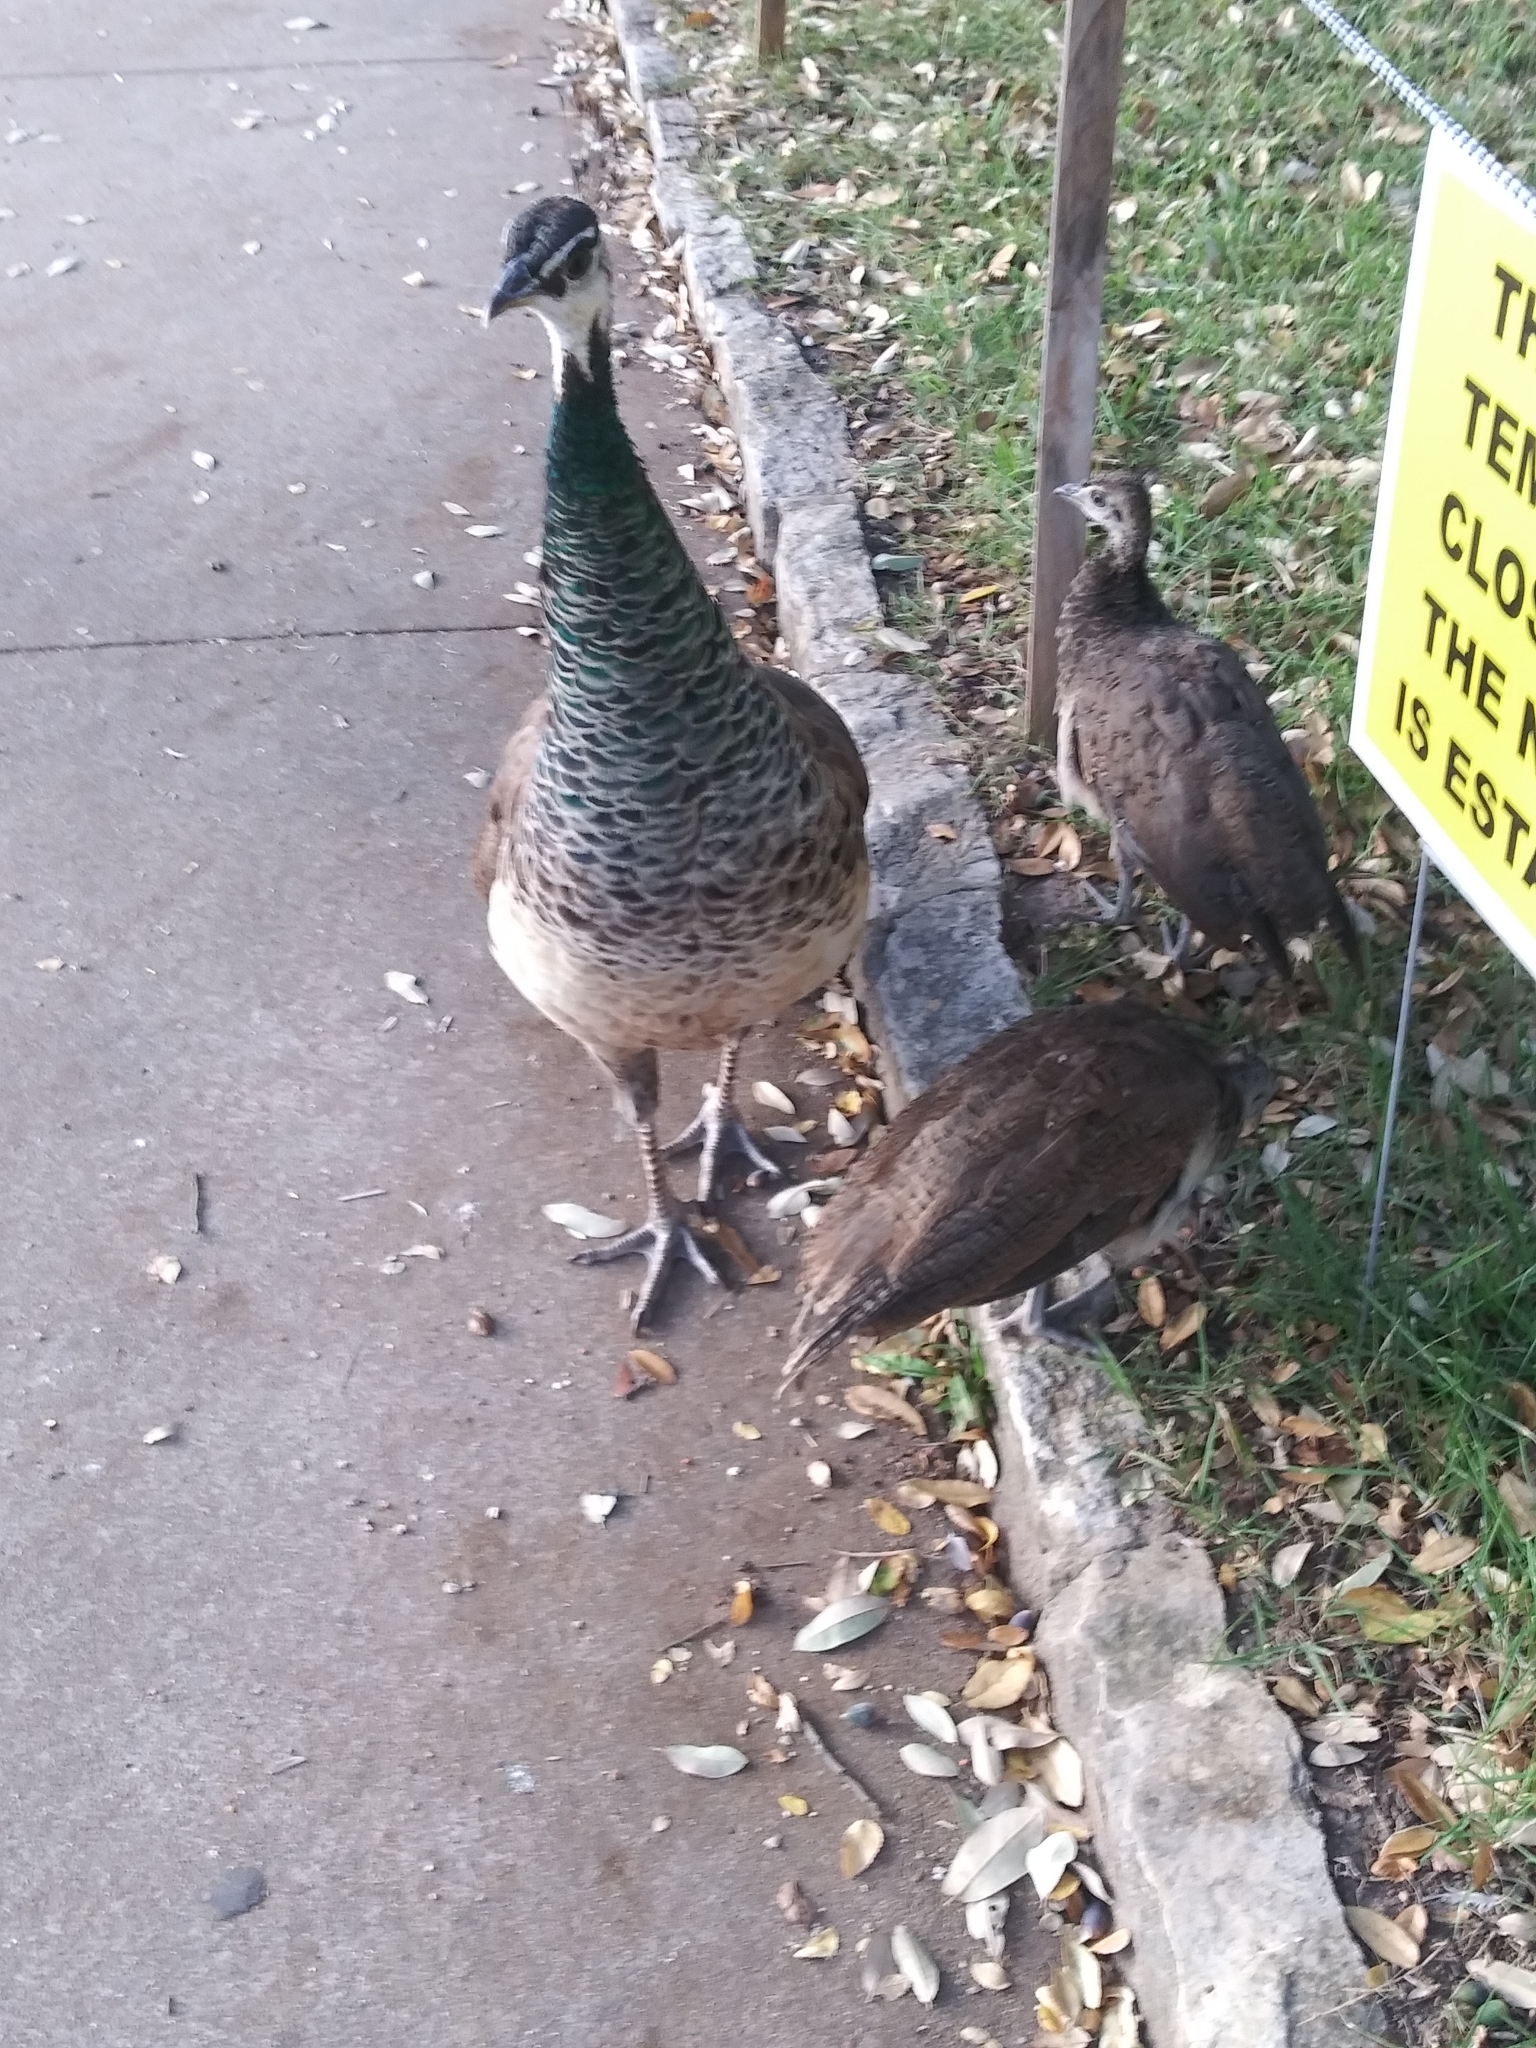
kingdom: Animalia
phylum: Chordata
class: Aves
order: Galliformes
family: Phasianidae
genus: Pavo
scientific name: Pavo cristatus
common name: Indian peafowl
